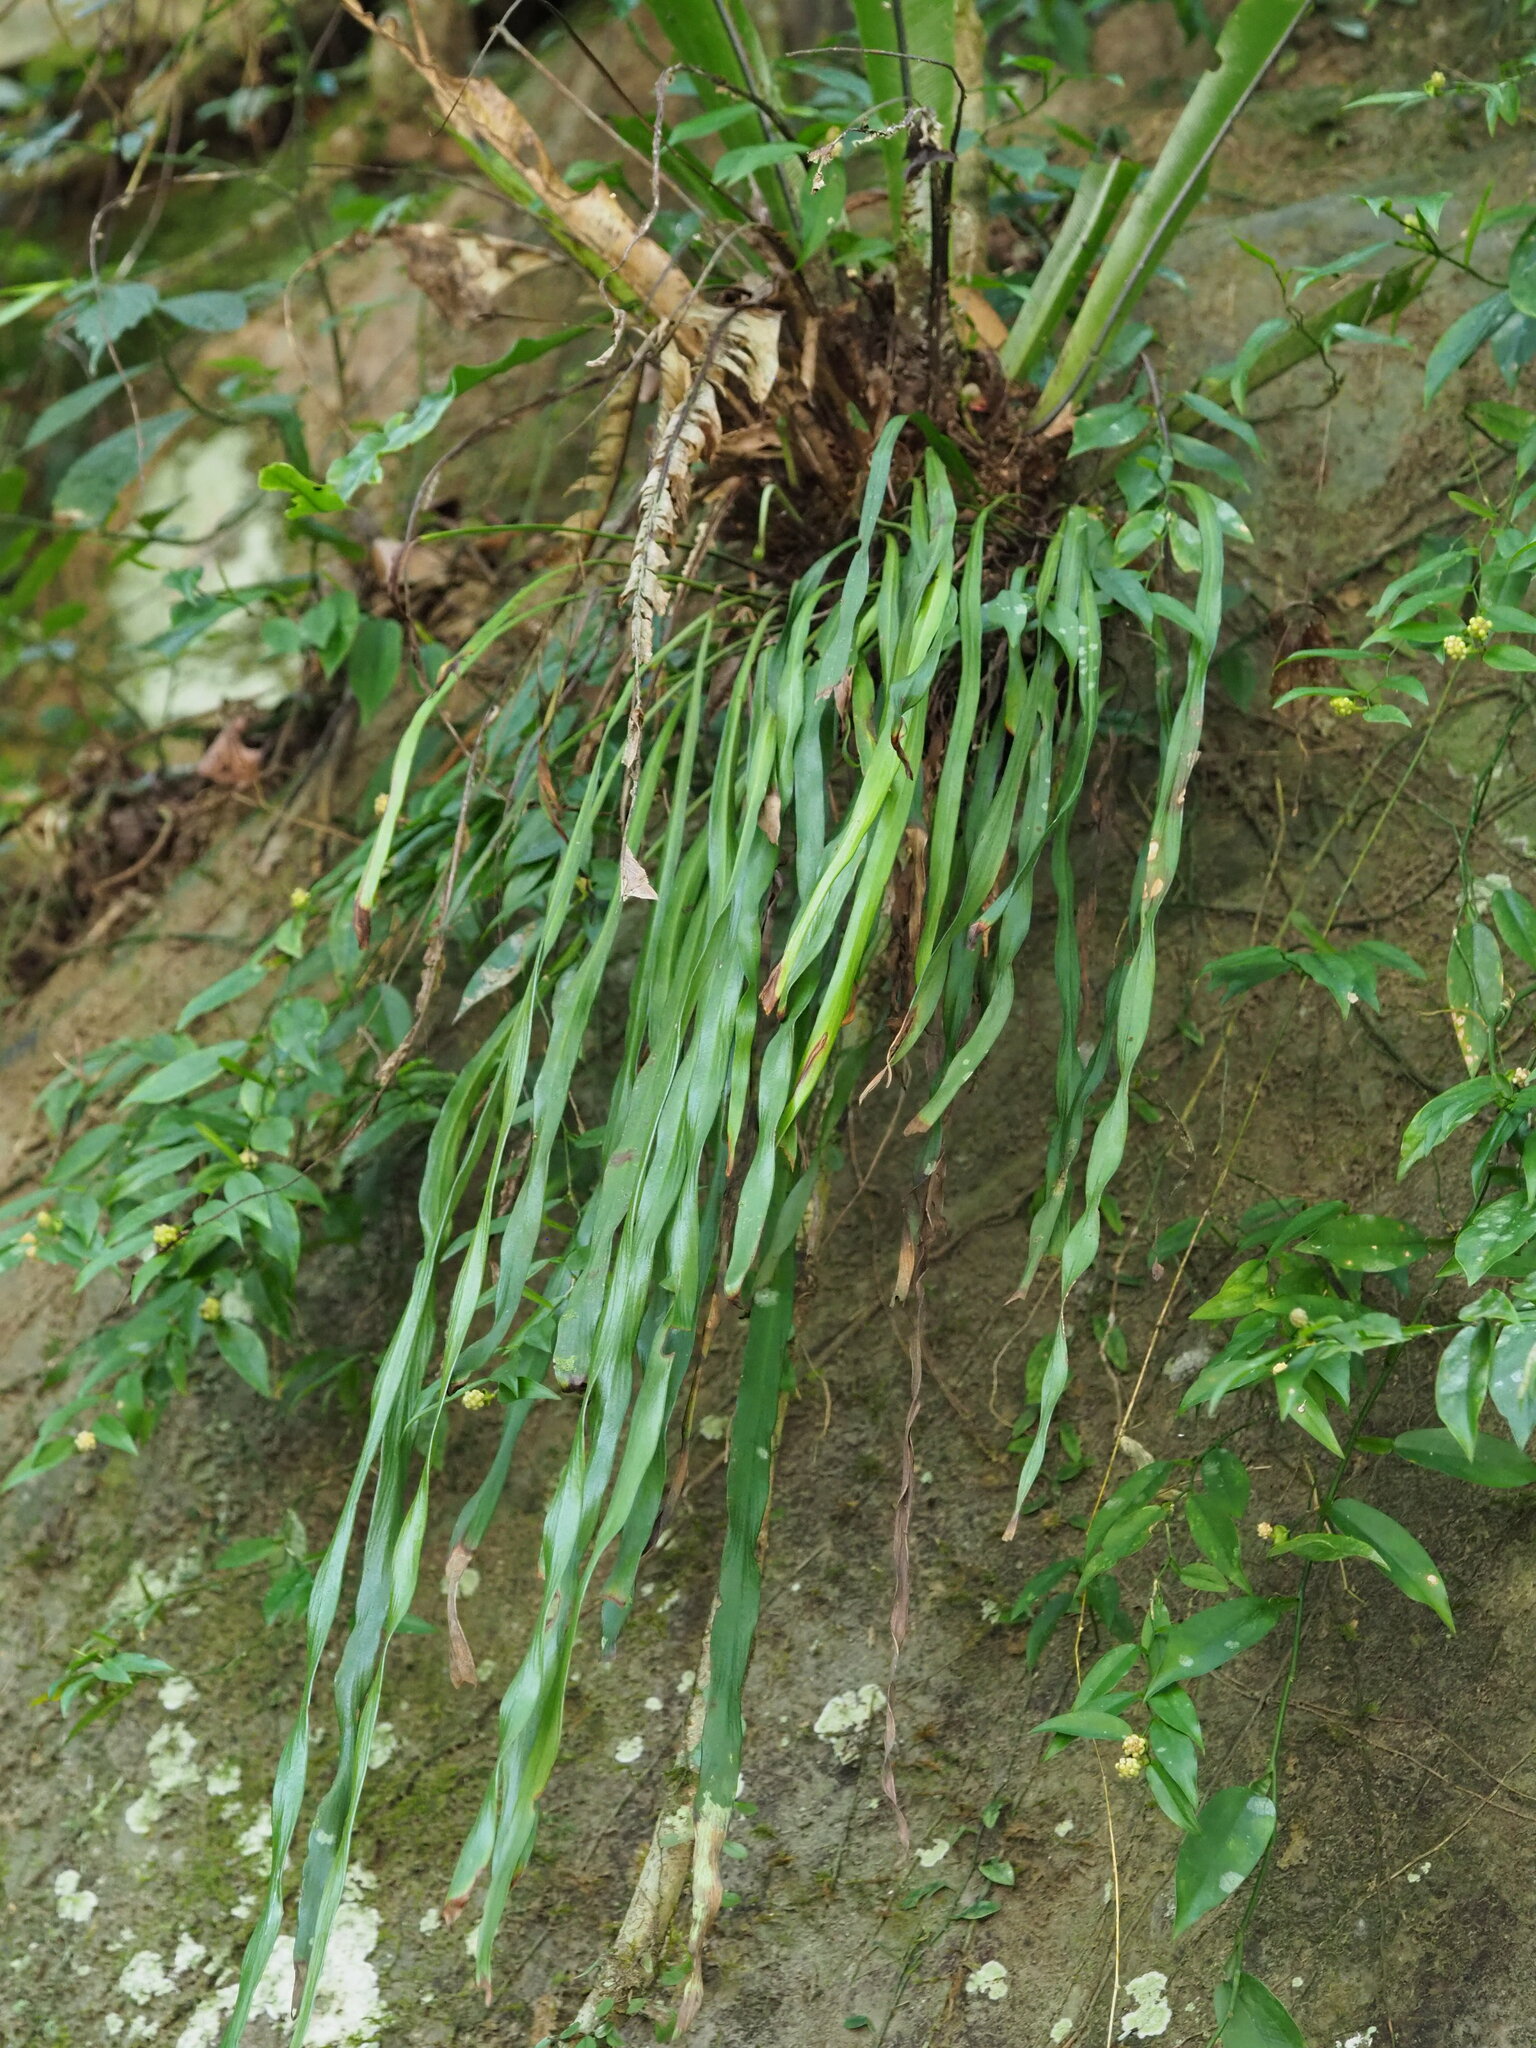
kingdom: Plantae
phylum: Tracheophyta
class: Polypodiopsida
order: Polypodiales
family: Pteridaceae
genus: Haplopteris
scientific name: Haplopteris elongata
